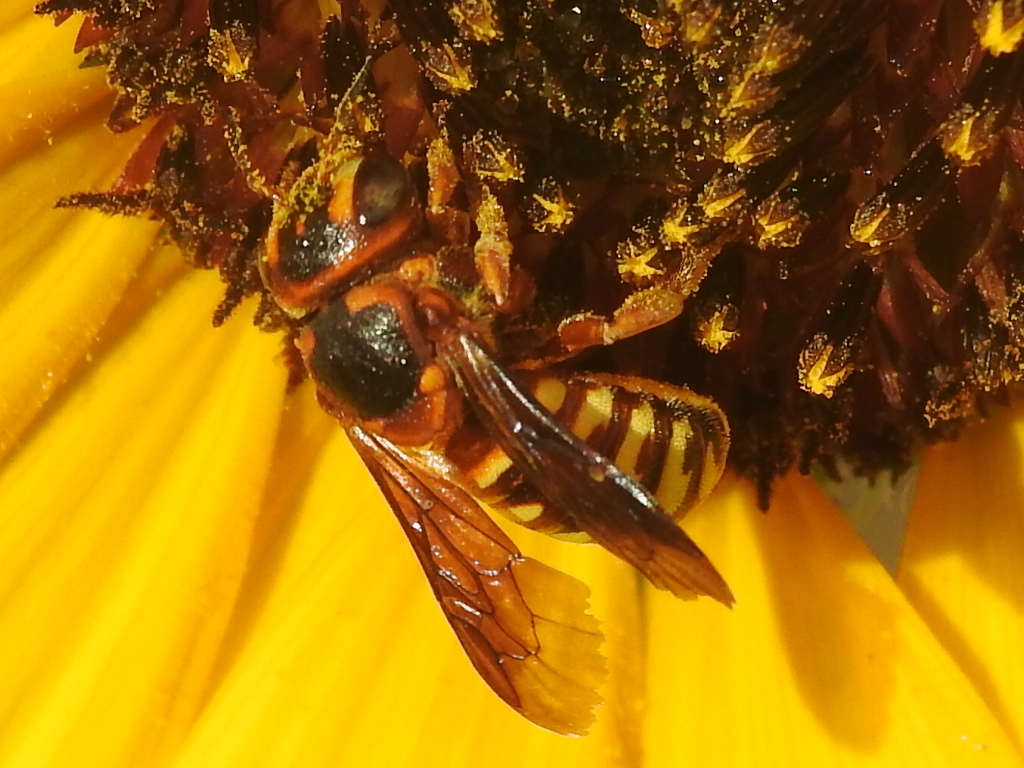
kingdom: Animalia
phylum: Arthropoda
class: Insecta
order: Hymenoptera
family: Megachilidae
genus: Dianthidium
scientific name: Dianthidium
